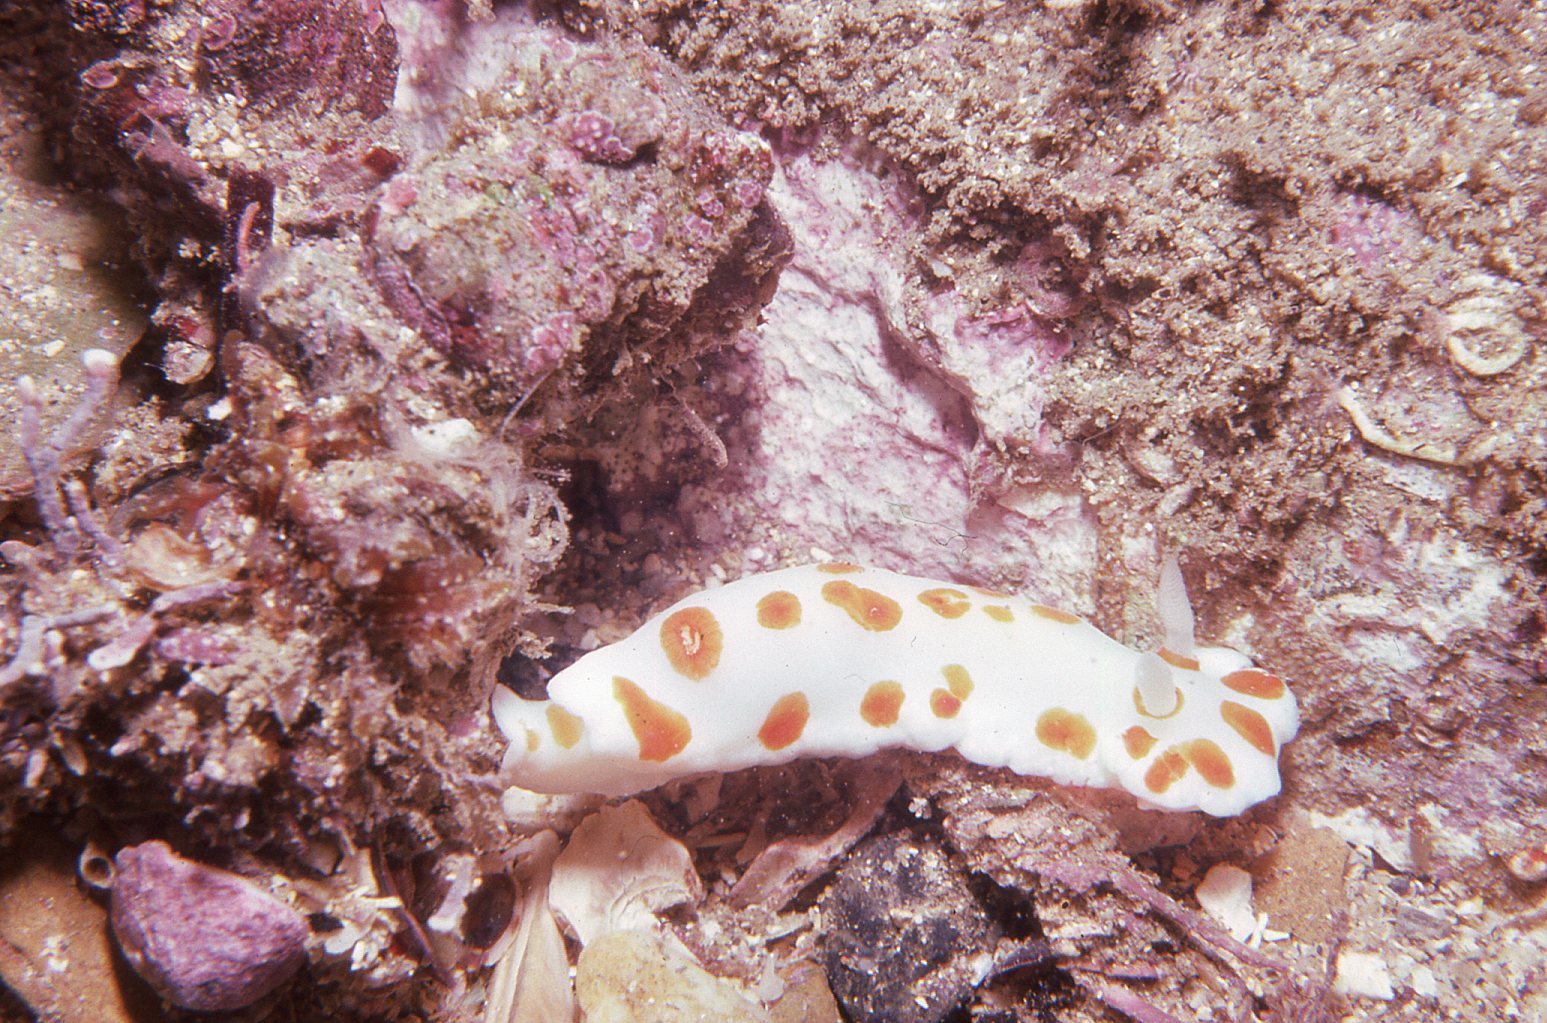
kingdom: Animalia
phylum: Mollusca
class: Gastropoda
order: Nudibranchia
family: Chromodorididae
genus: Goniobranchus
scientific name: Goniobranchus tasmaniensis
